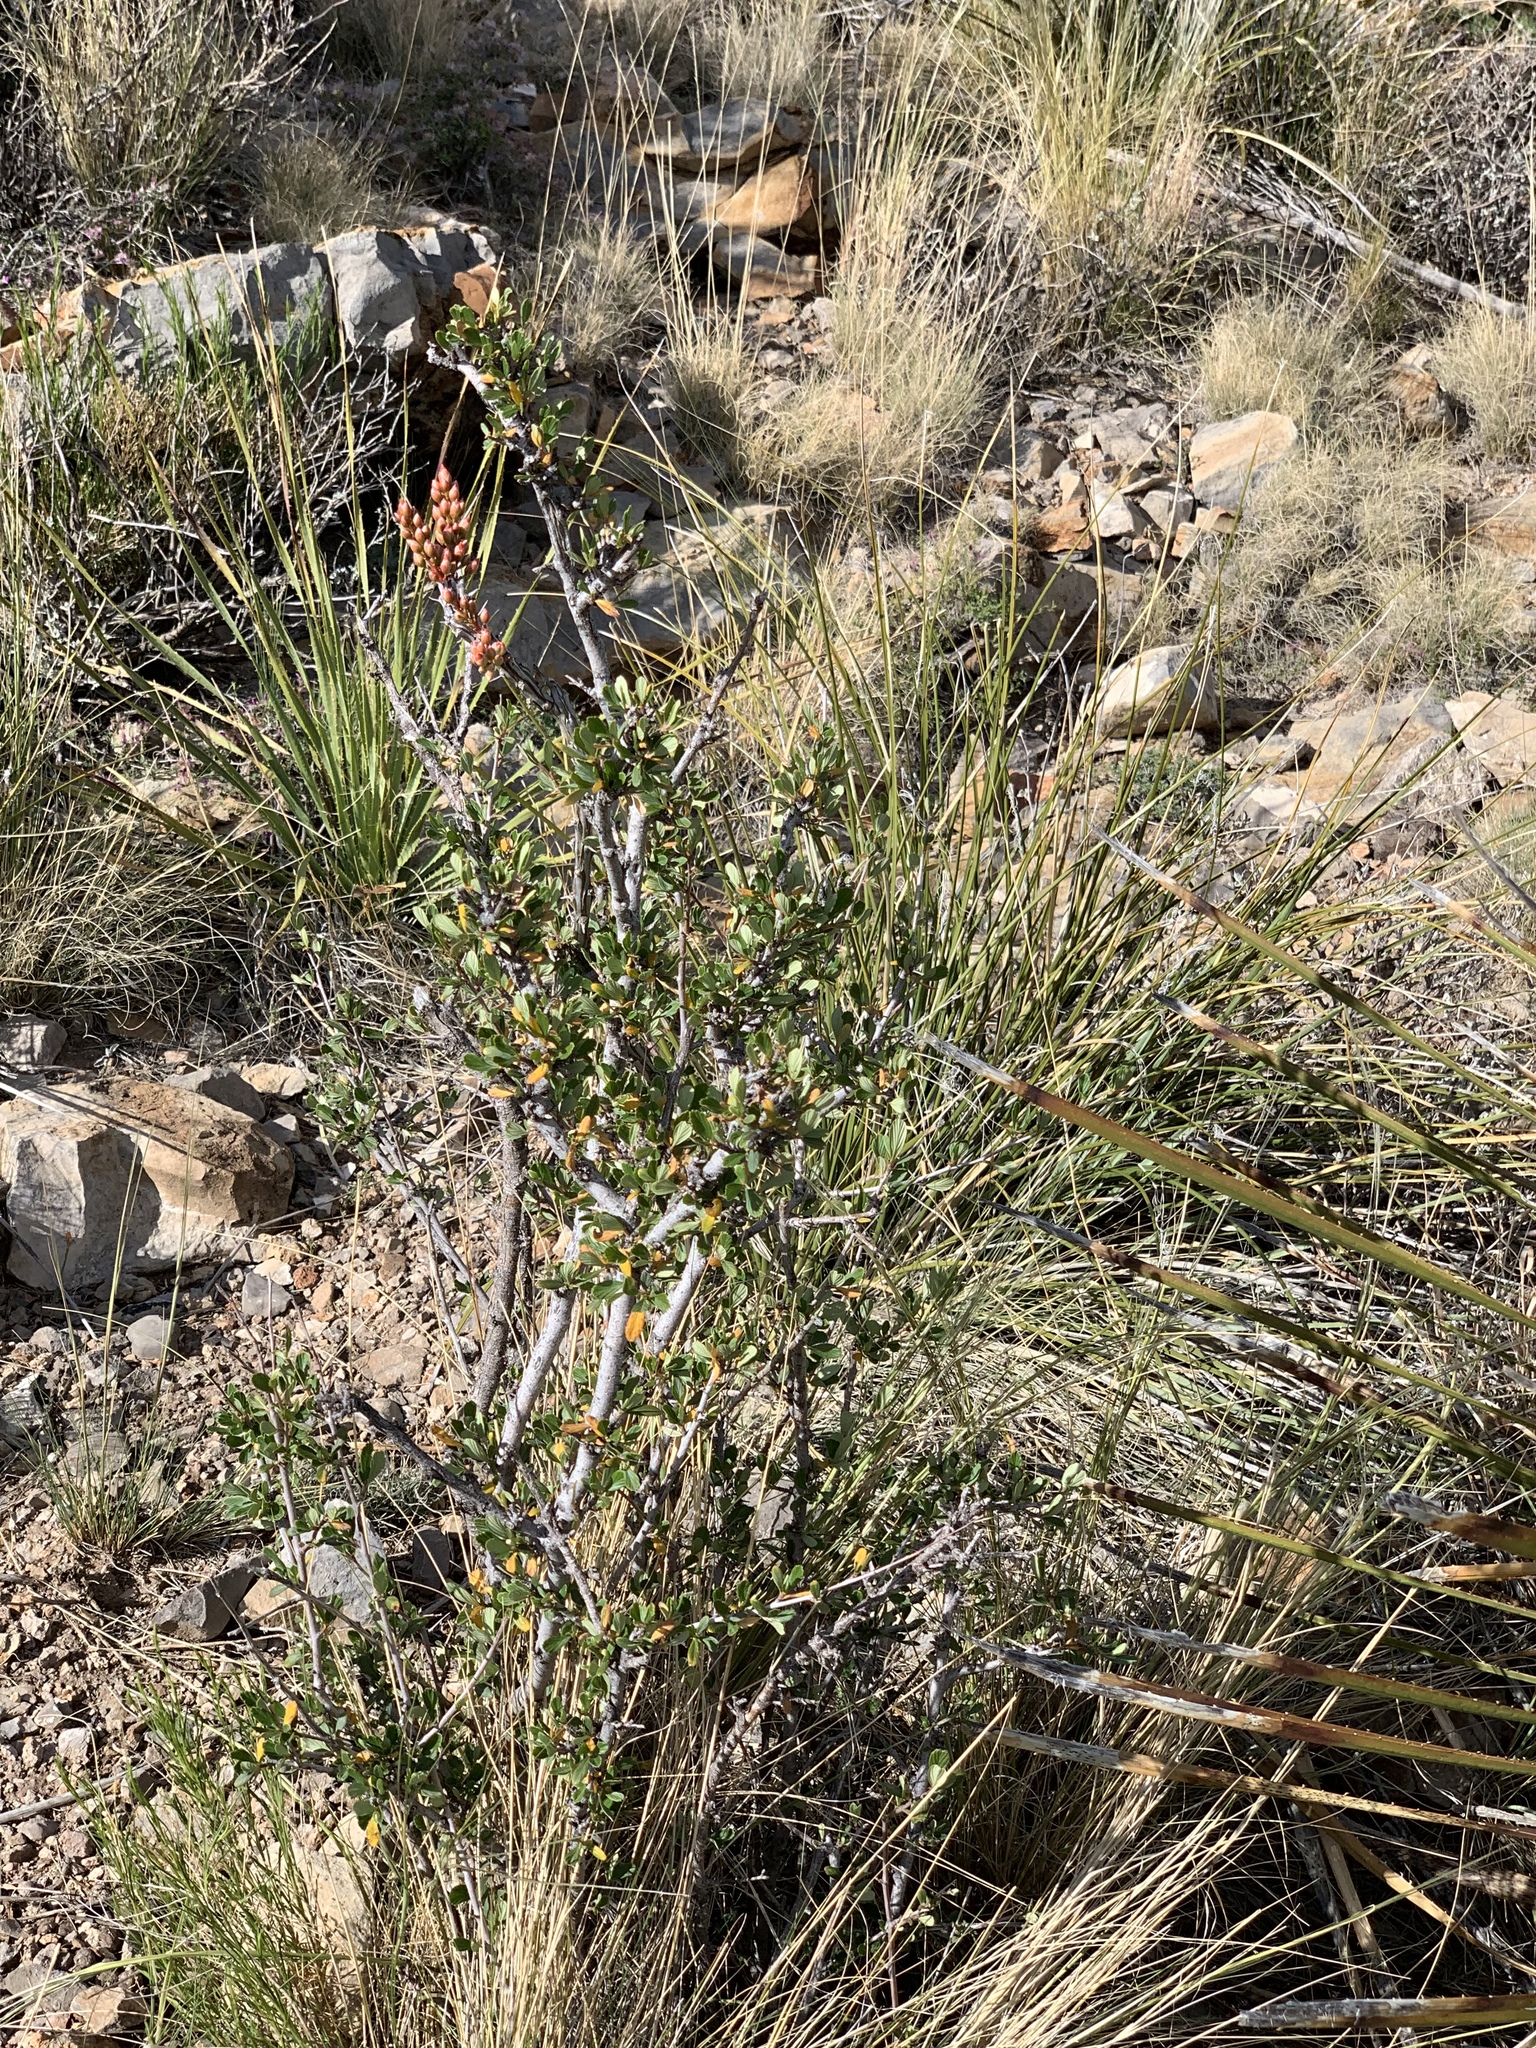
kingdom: Plantae
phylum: Tracheophyta
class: Magnoliopsida
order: Rosales
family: Rosaceae
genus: Cercocarpus
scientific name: Cercocarpus breviflorus
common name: Wright's mountain-mahogany
